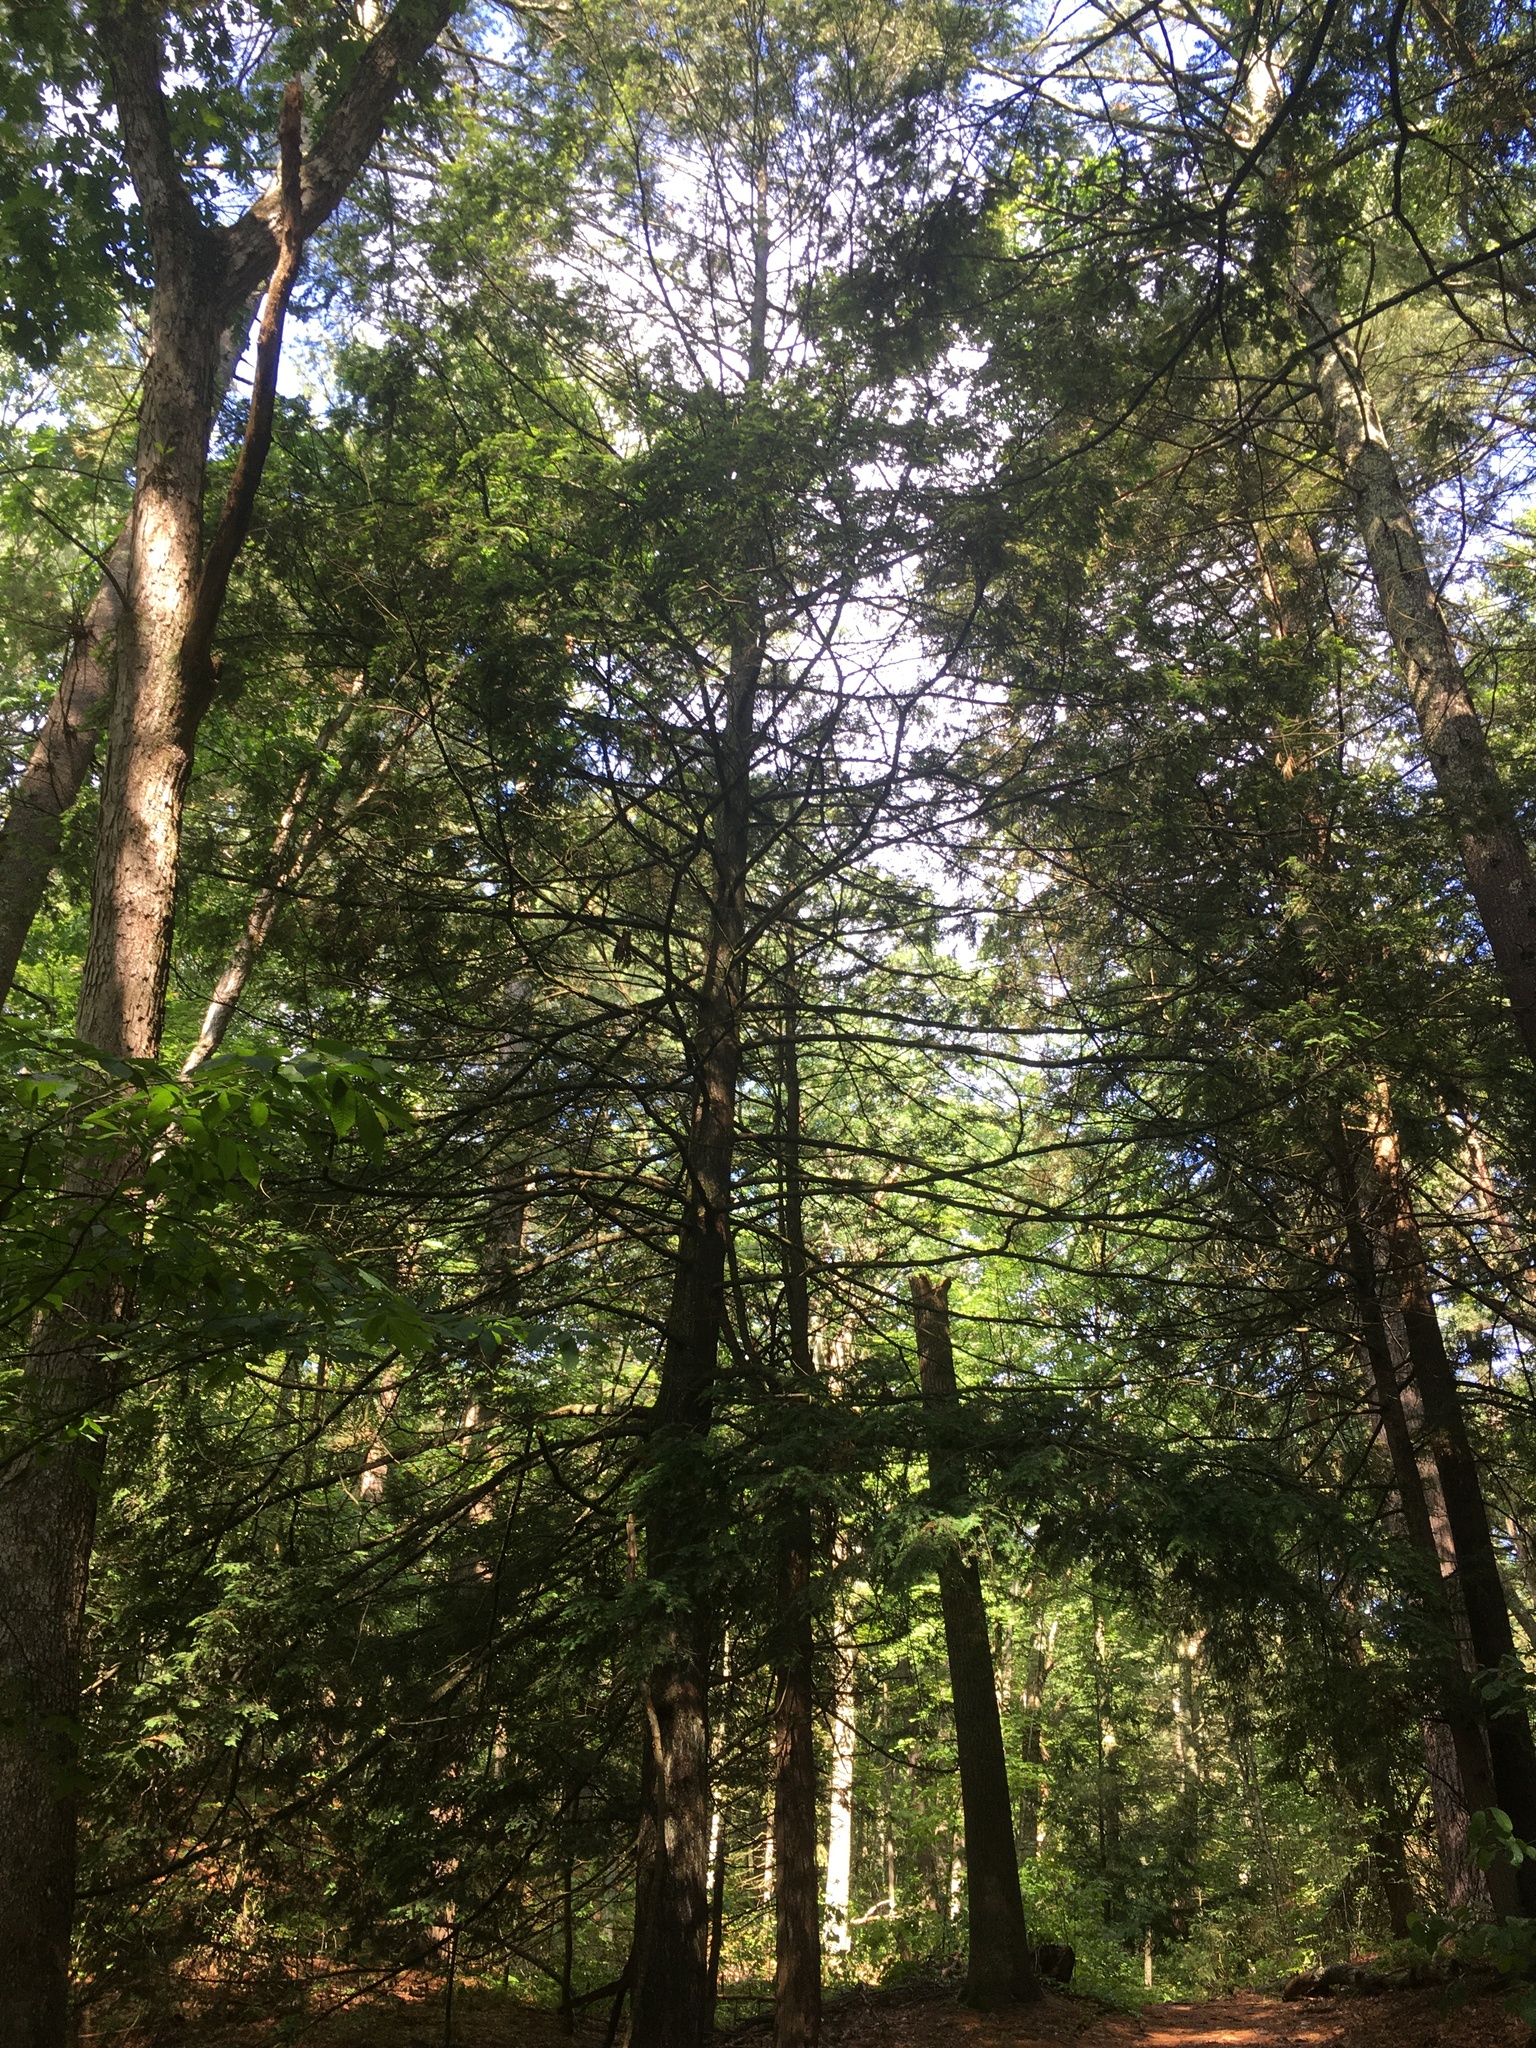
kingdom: Plantae
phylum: Tracheophyta
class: Pinopsida
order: Pinales
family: Pinaceae
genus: Tsuga
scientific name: Tsuga canadensis
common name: Eastern hemlock
